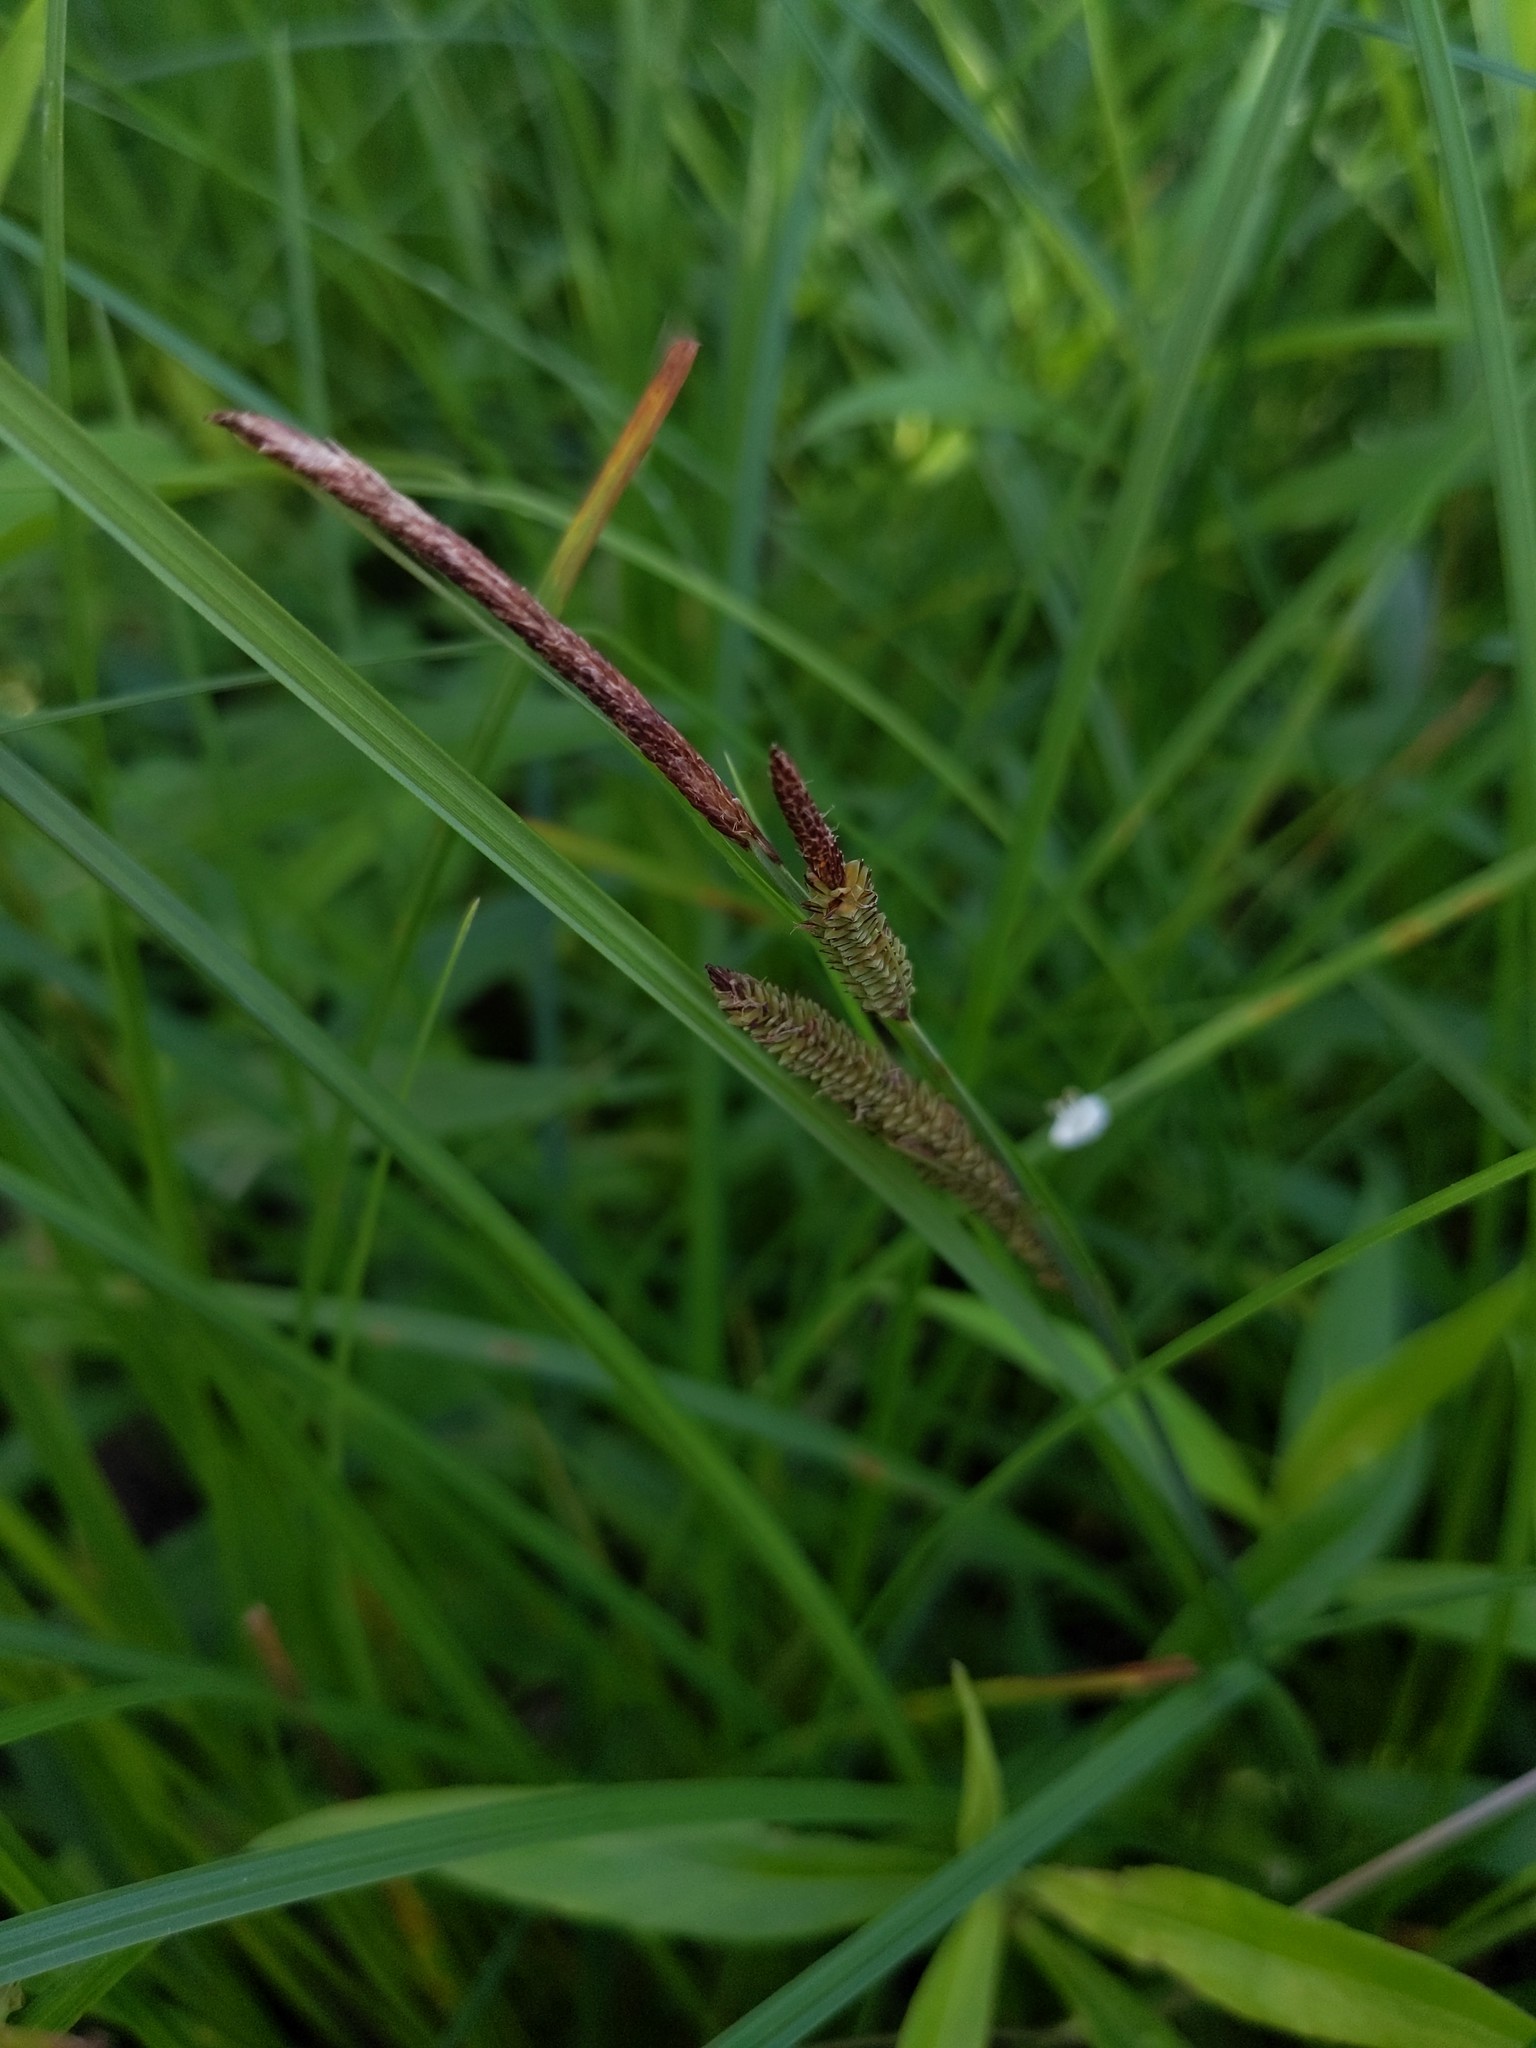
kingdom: Plantae
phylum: Tracheophyta
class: Liliopsida
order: Poales
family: Cyperaceae
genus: Carex
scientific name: Carex stricta
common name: Hummock sedge
